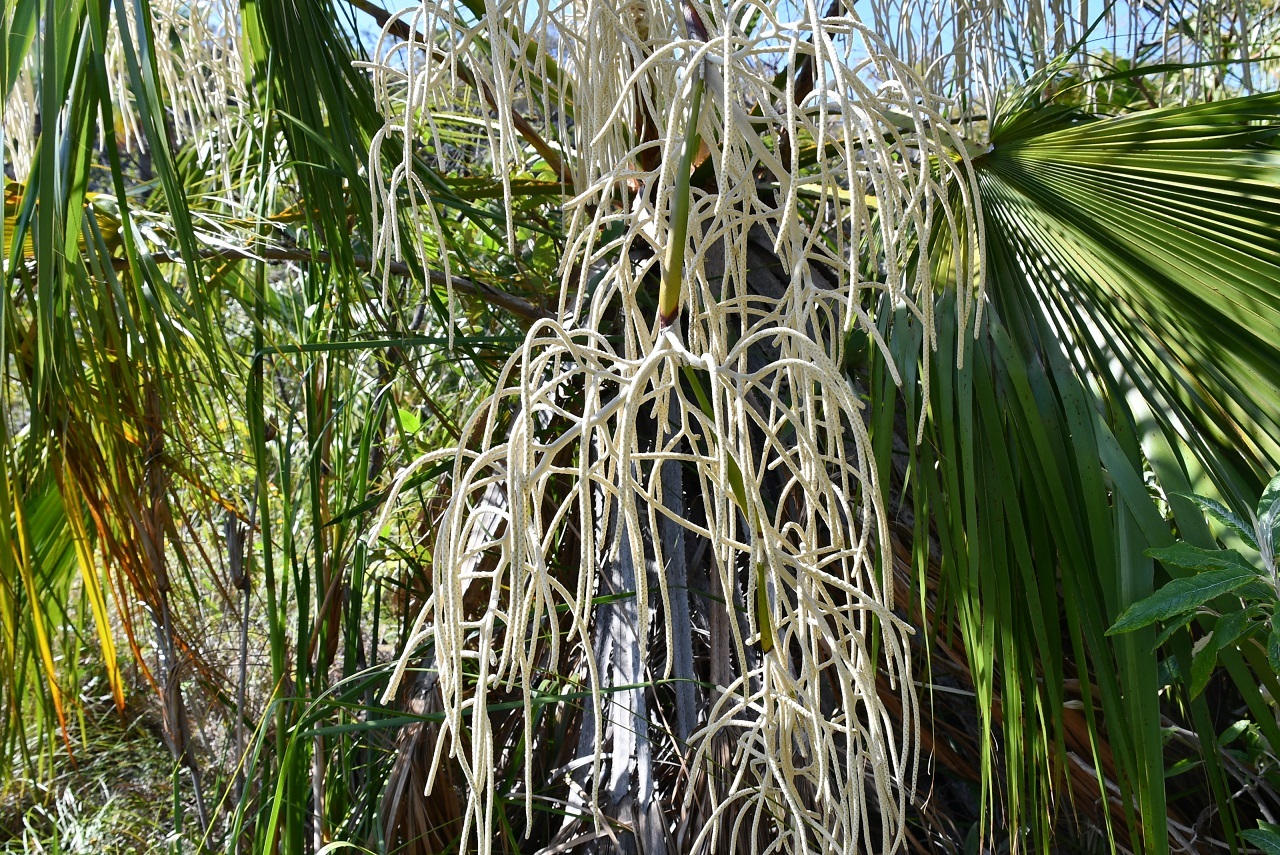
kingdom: Plantae
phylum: Tracheophyta
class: Liliopsida
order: Arecales
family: Arecaceae
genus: Brahea
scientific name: Brahea nitida
